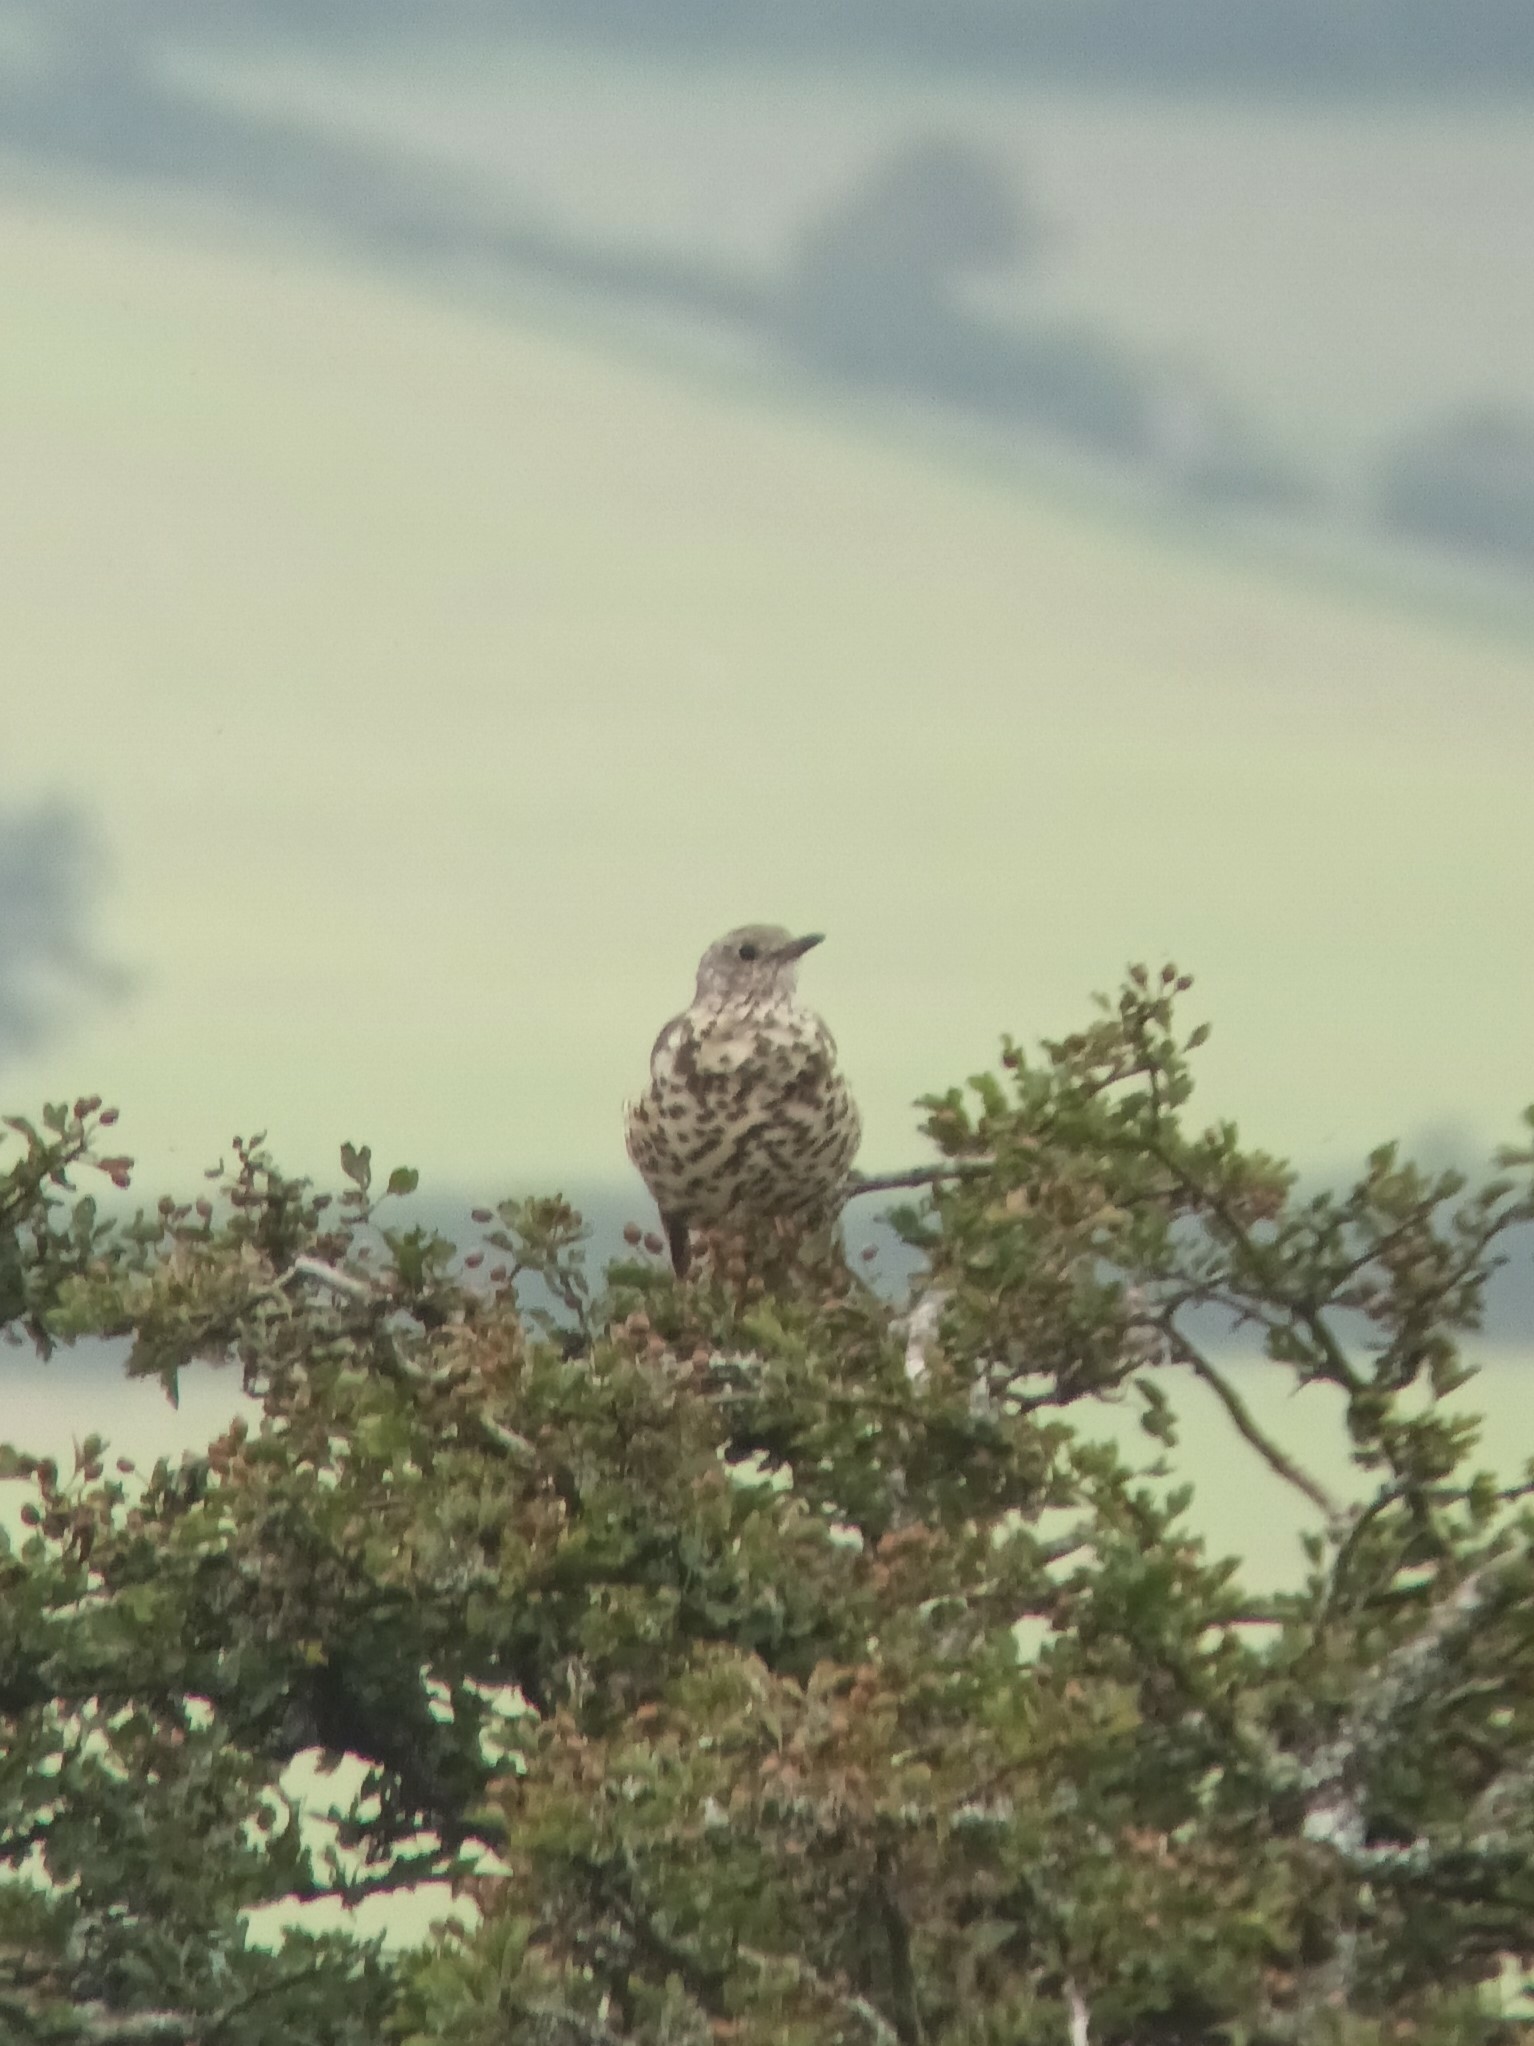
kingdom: Animalia
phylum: Chordata
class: Aves
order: Passeriformes
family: Turdidae
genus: Turdus
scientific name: Turdus viscivorus
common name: Mistle thrush
